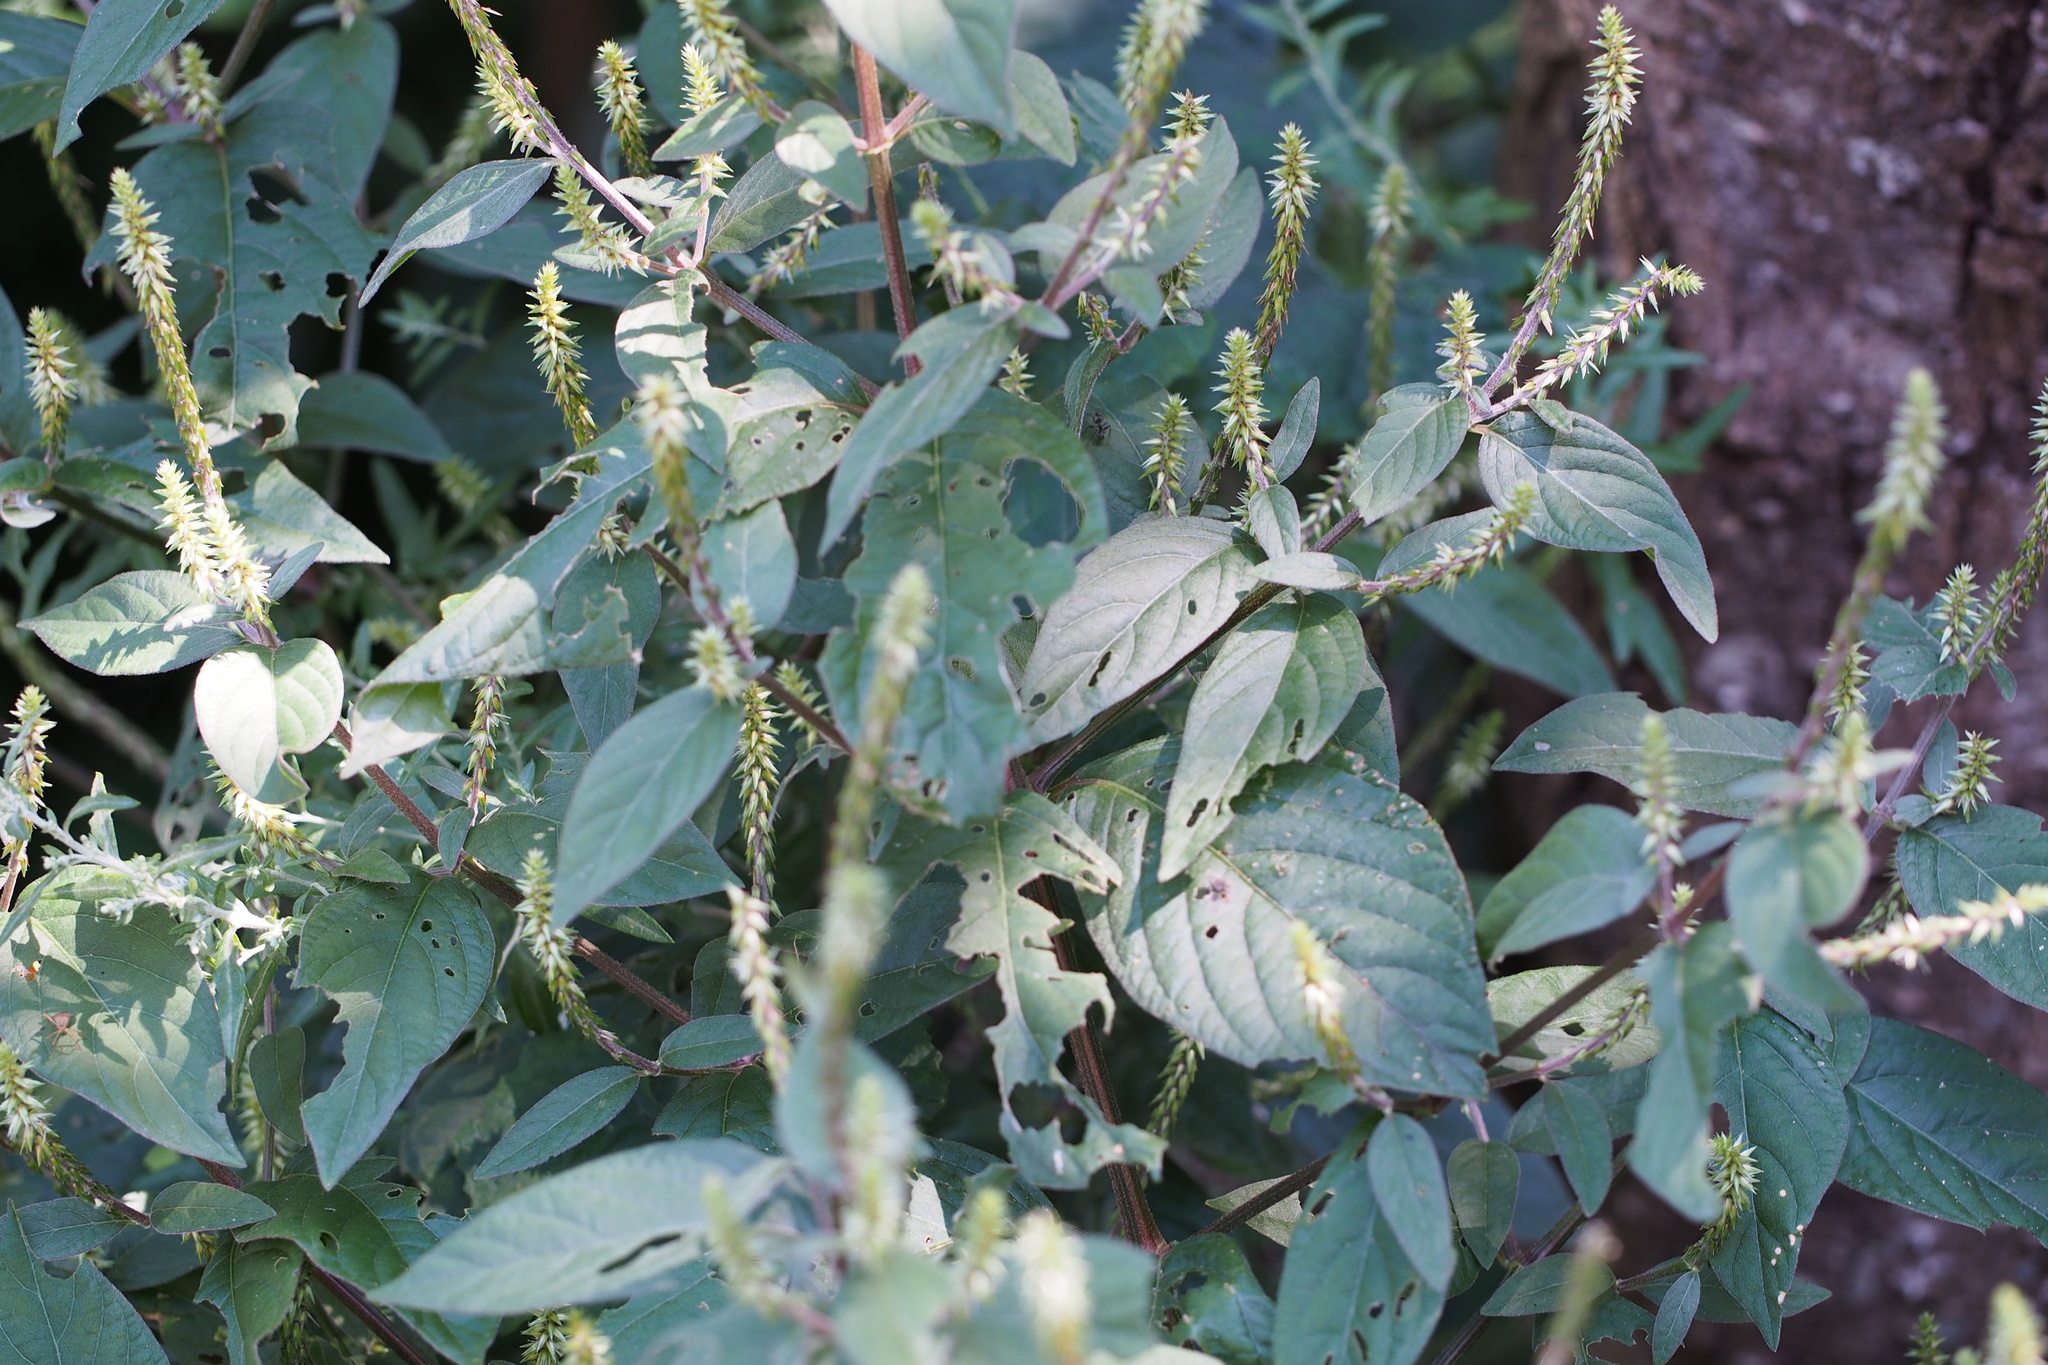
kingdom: Plantae
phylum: Tracheophyta
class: Magnoliopsida
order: Caryophyllales
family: Amaranthaceae
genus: Achyranthes
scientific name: Achyranthes bidentata
